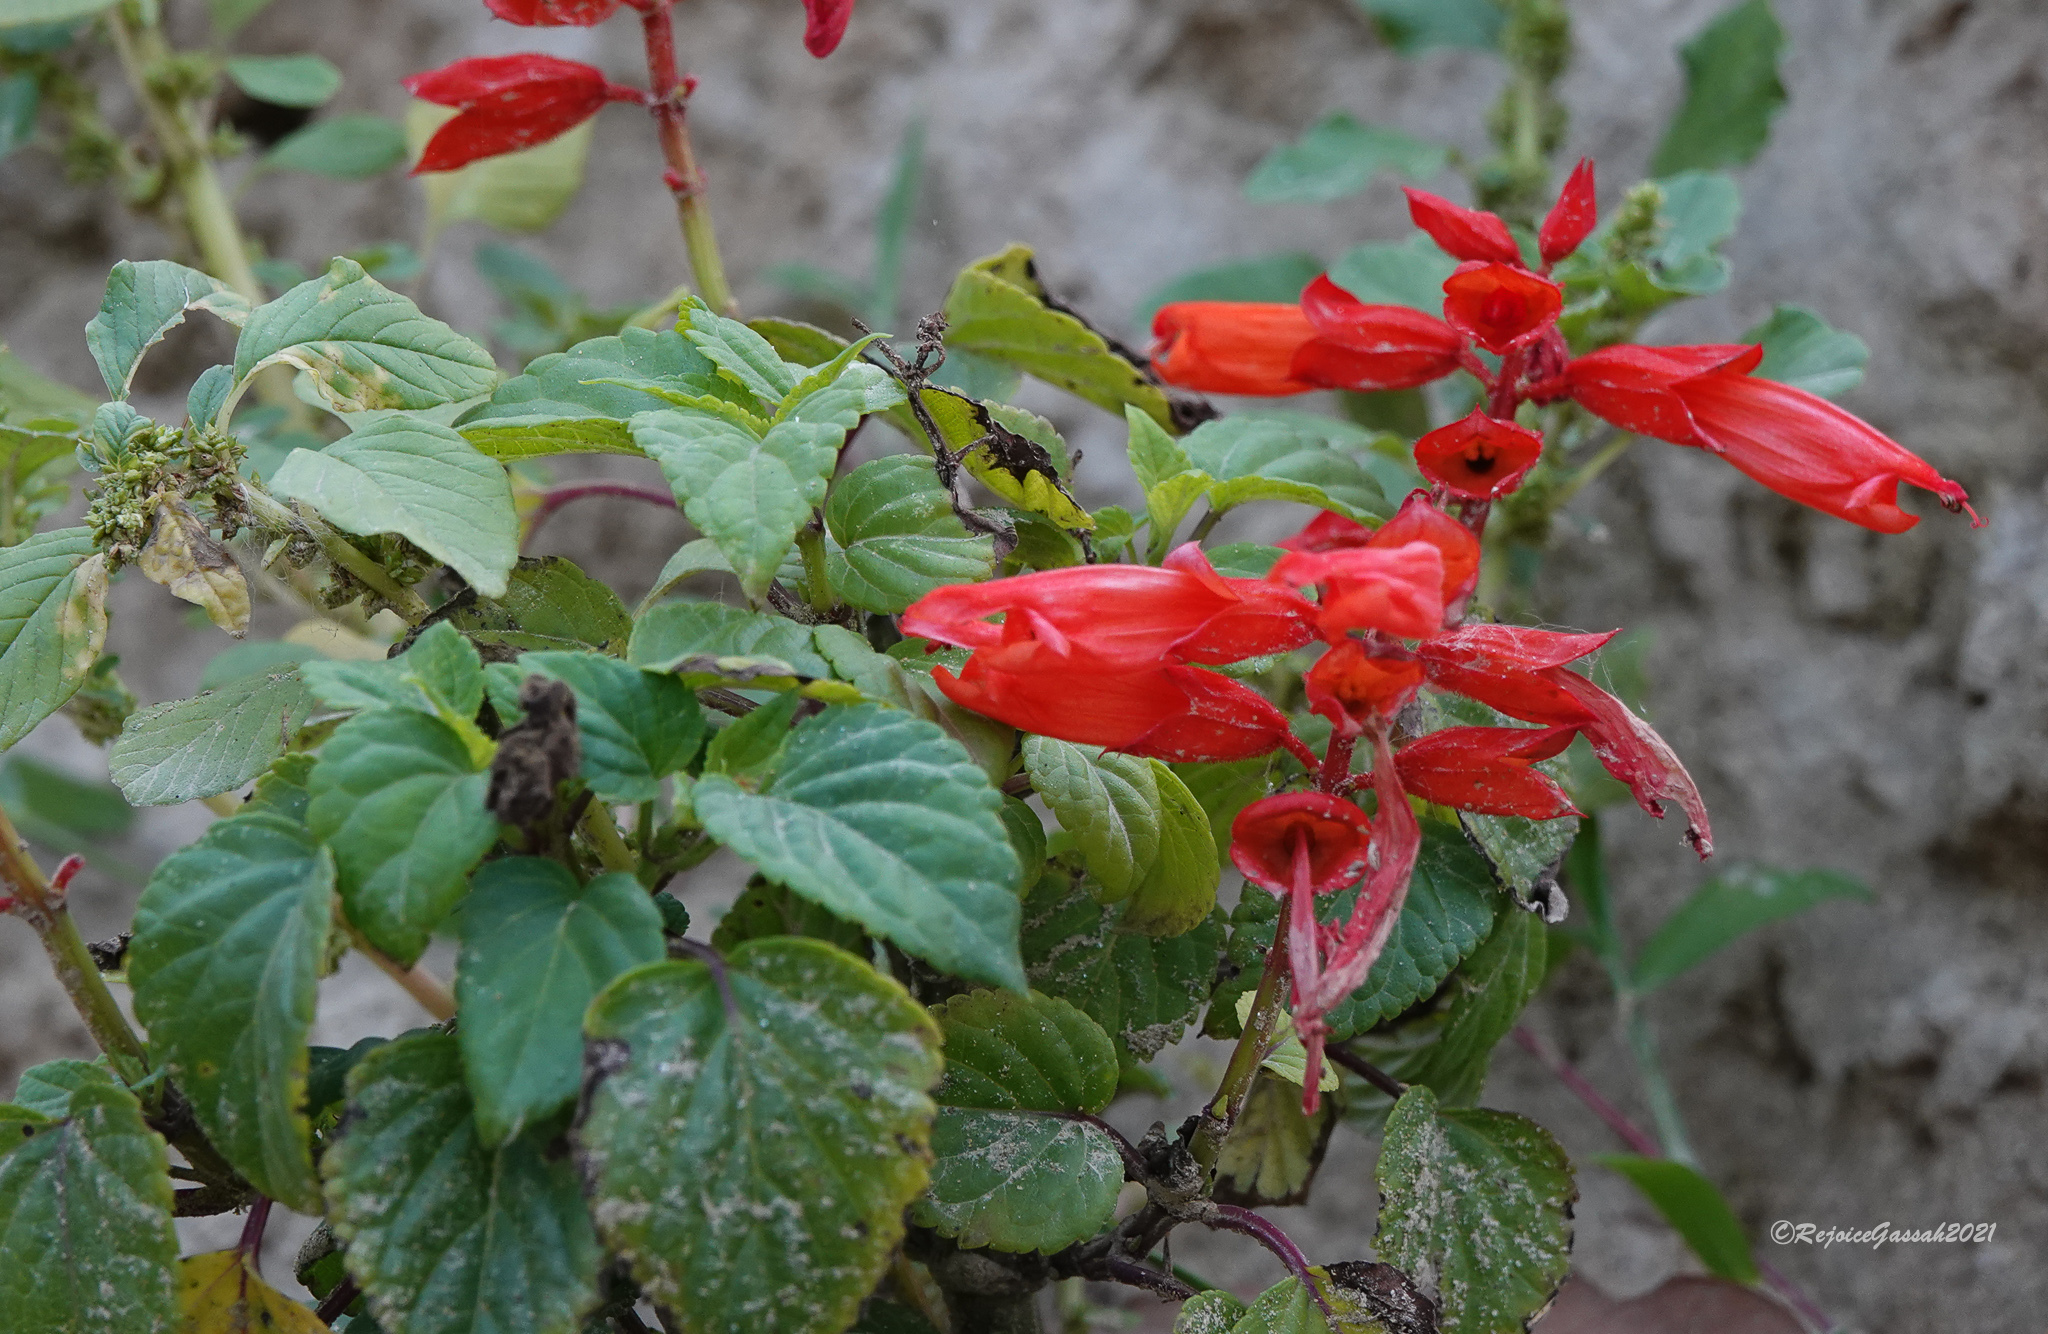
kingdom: Plantae
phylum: Tracheophyta
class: Magnoliopsida
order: Lamiales
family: Lamiaceae
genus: Salvia
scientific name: Salvia splendens
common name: Scarlet sage
